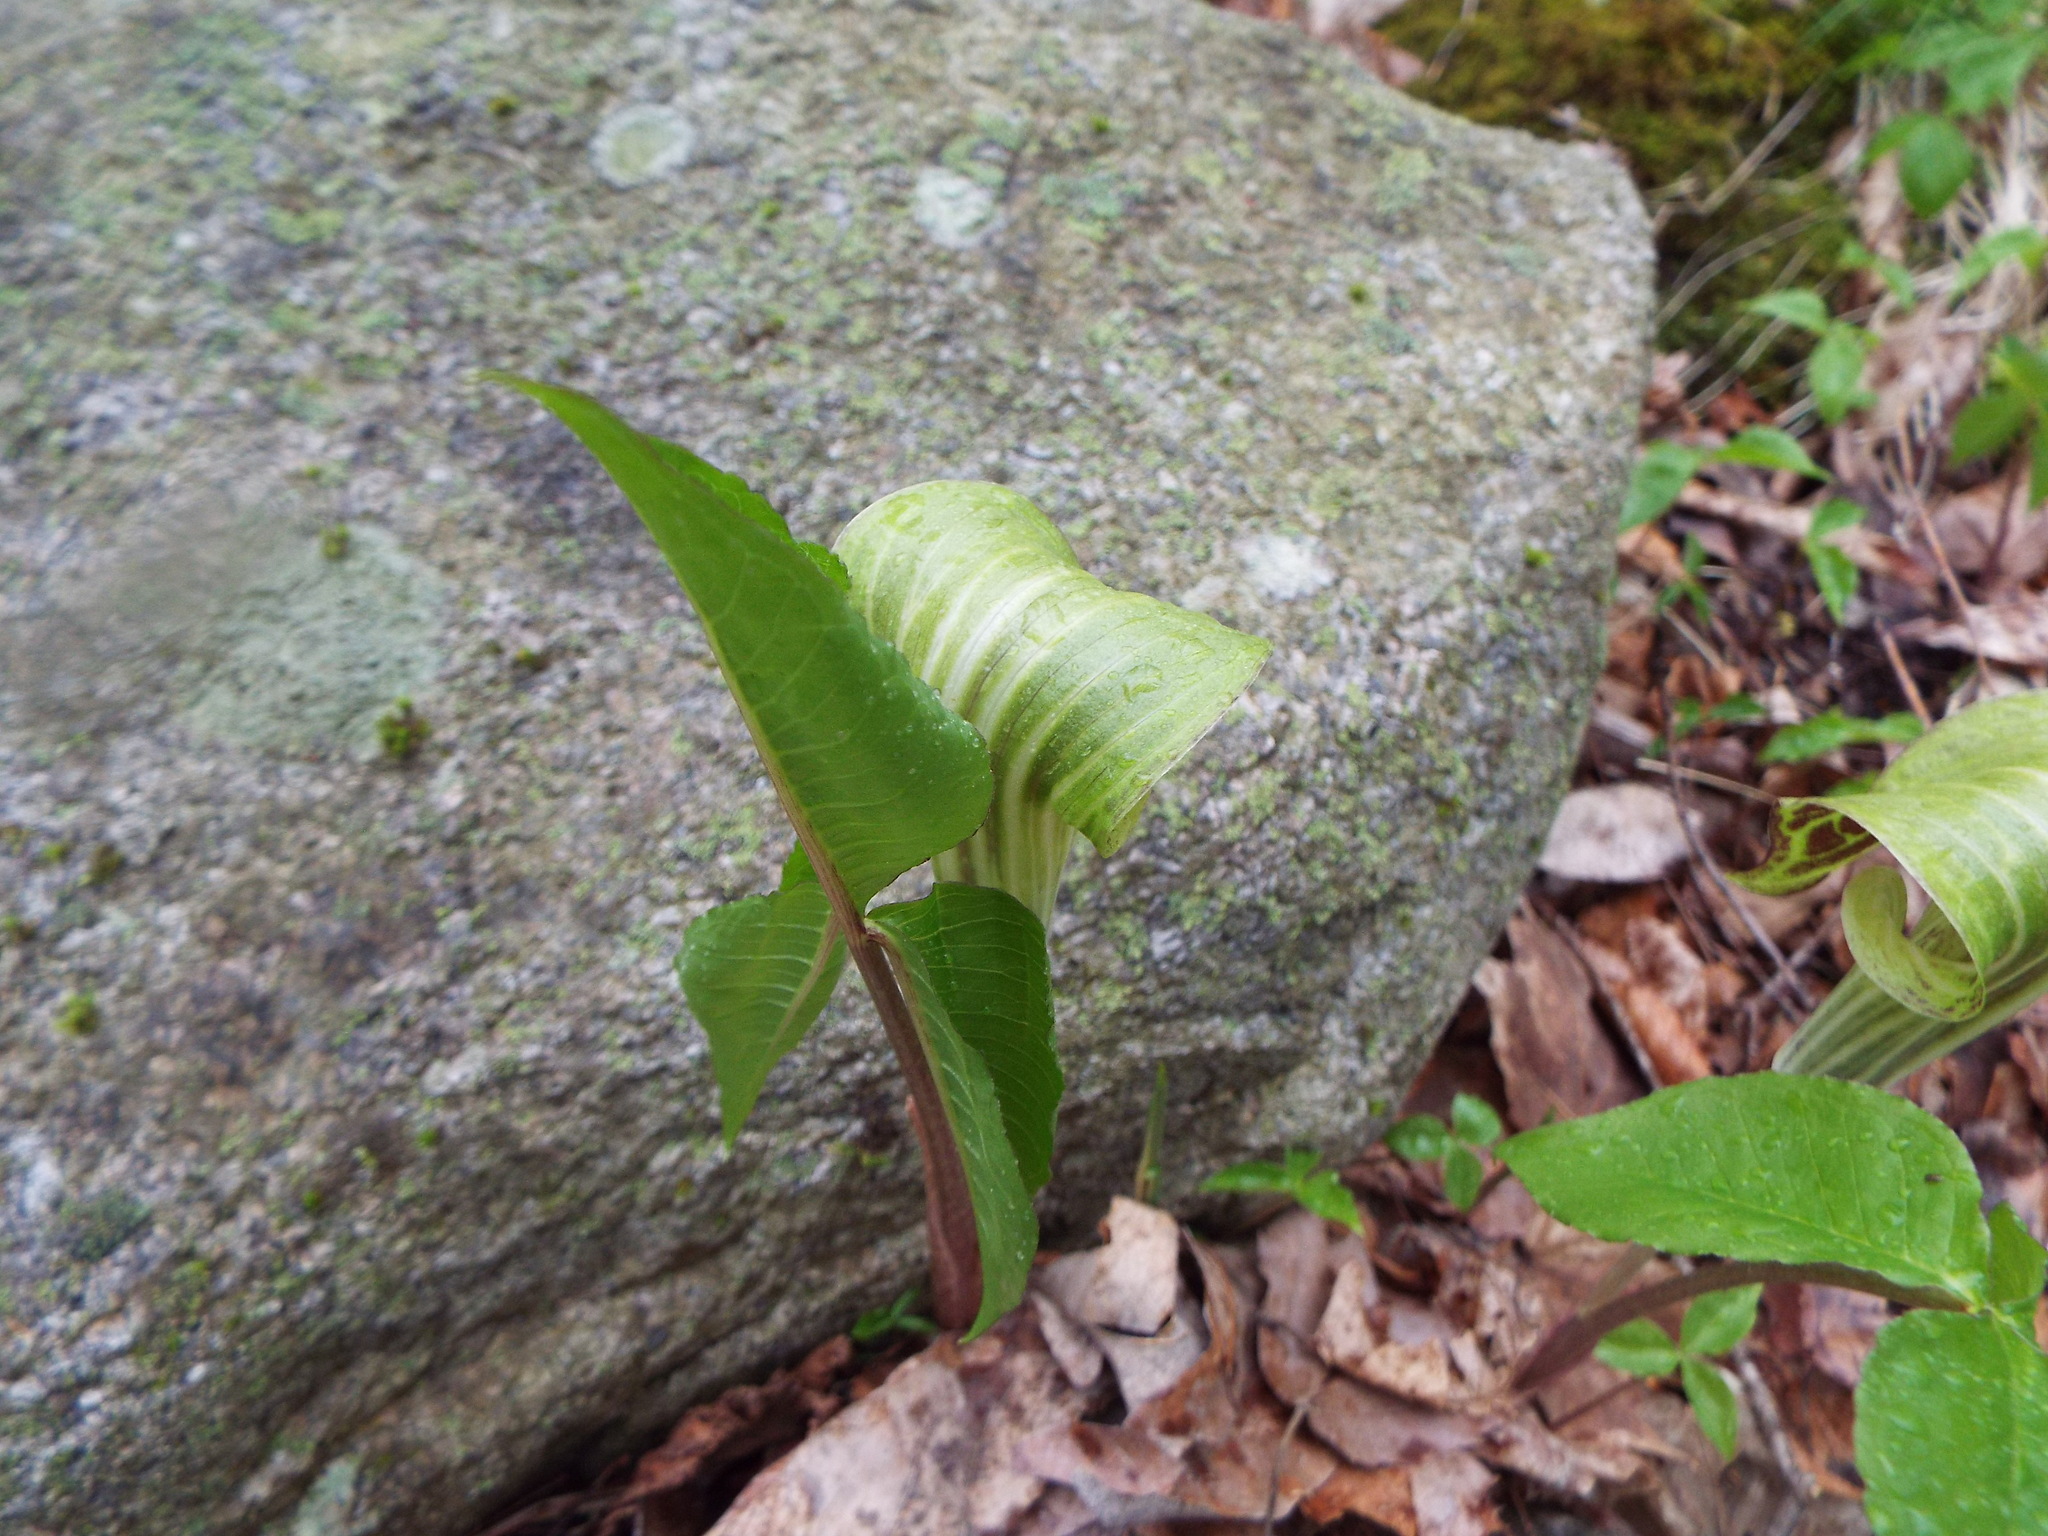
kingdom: Plantae
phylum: Tracheophyta
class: Liliopsida
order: Alismatales
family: Araceae
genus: Arisaema
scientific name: Arisaema triphyllum
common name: Jack-in-the-pulpit
